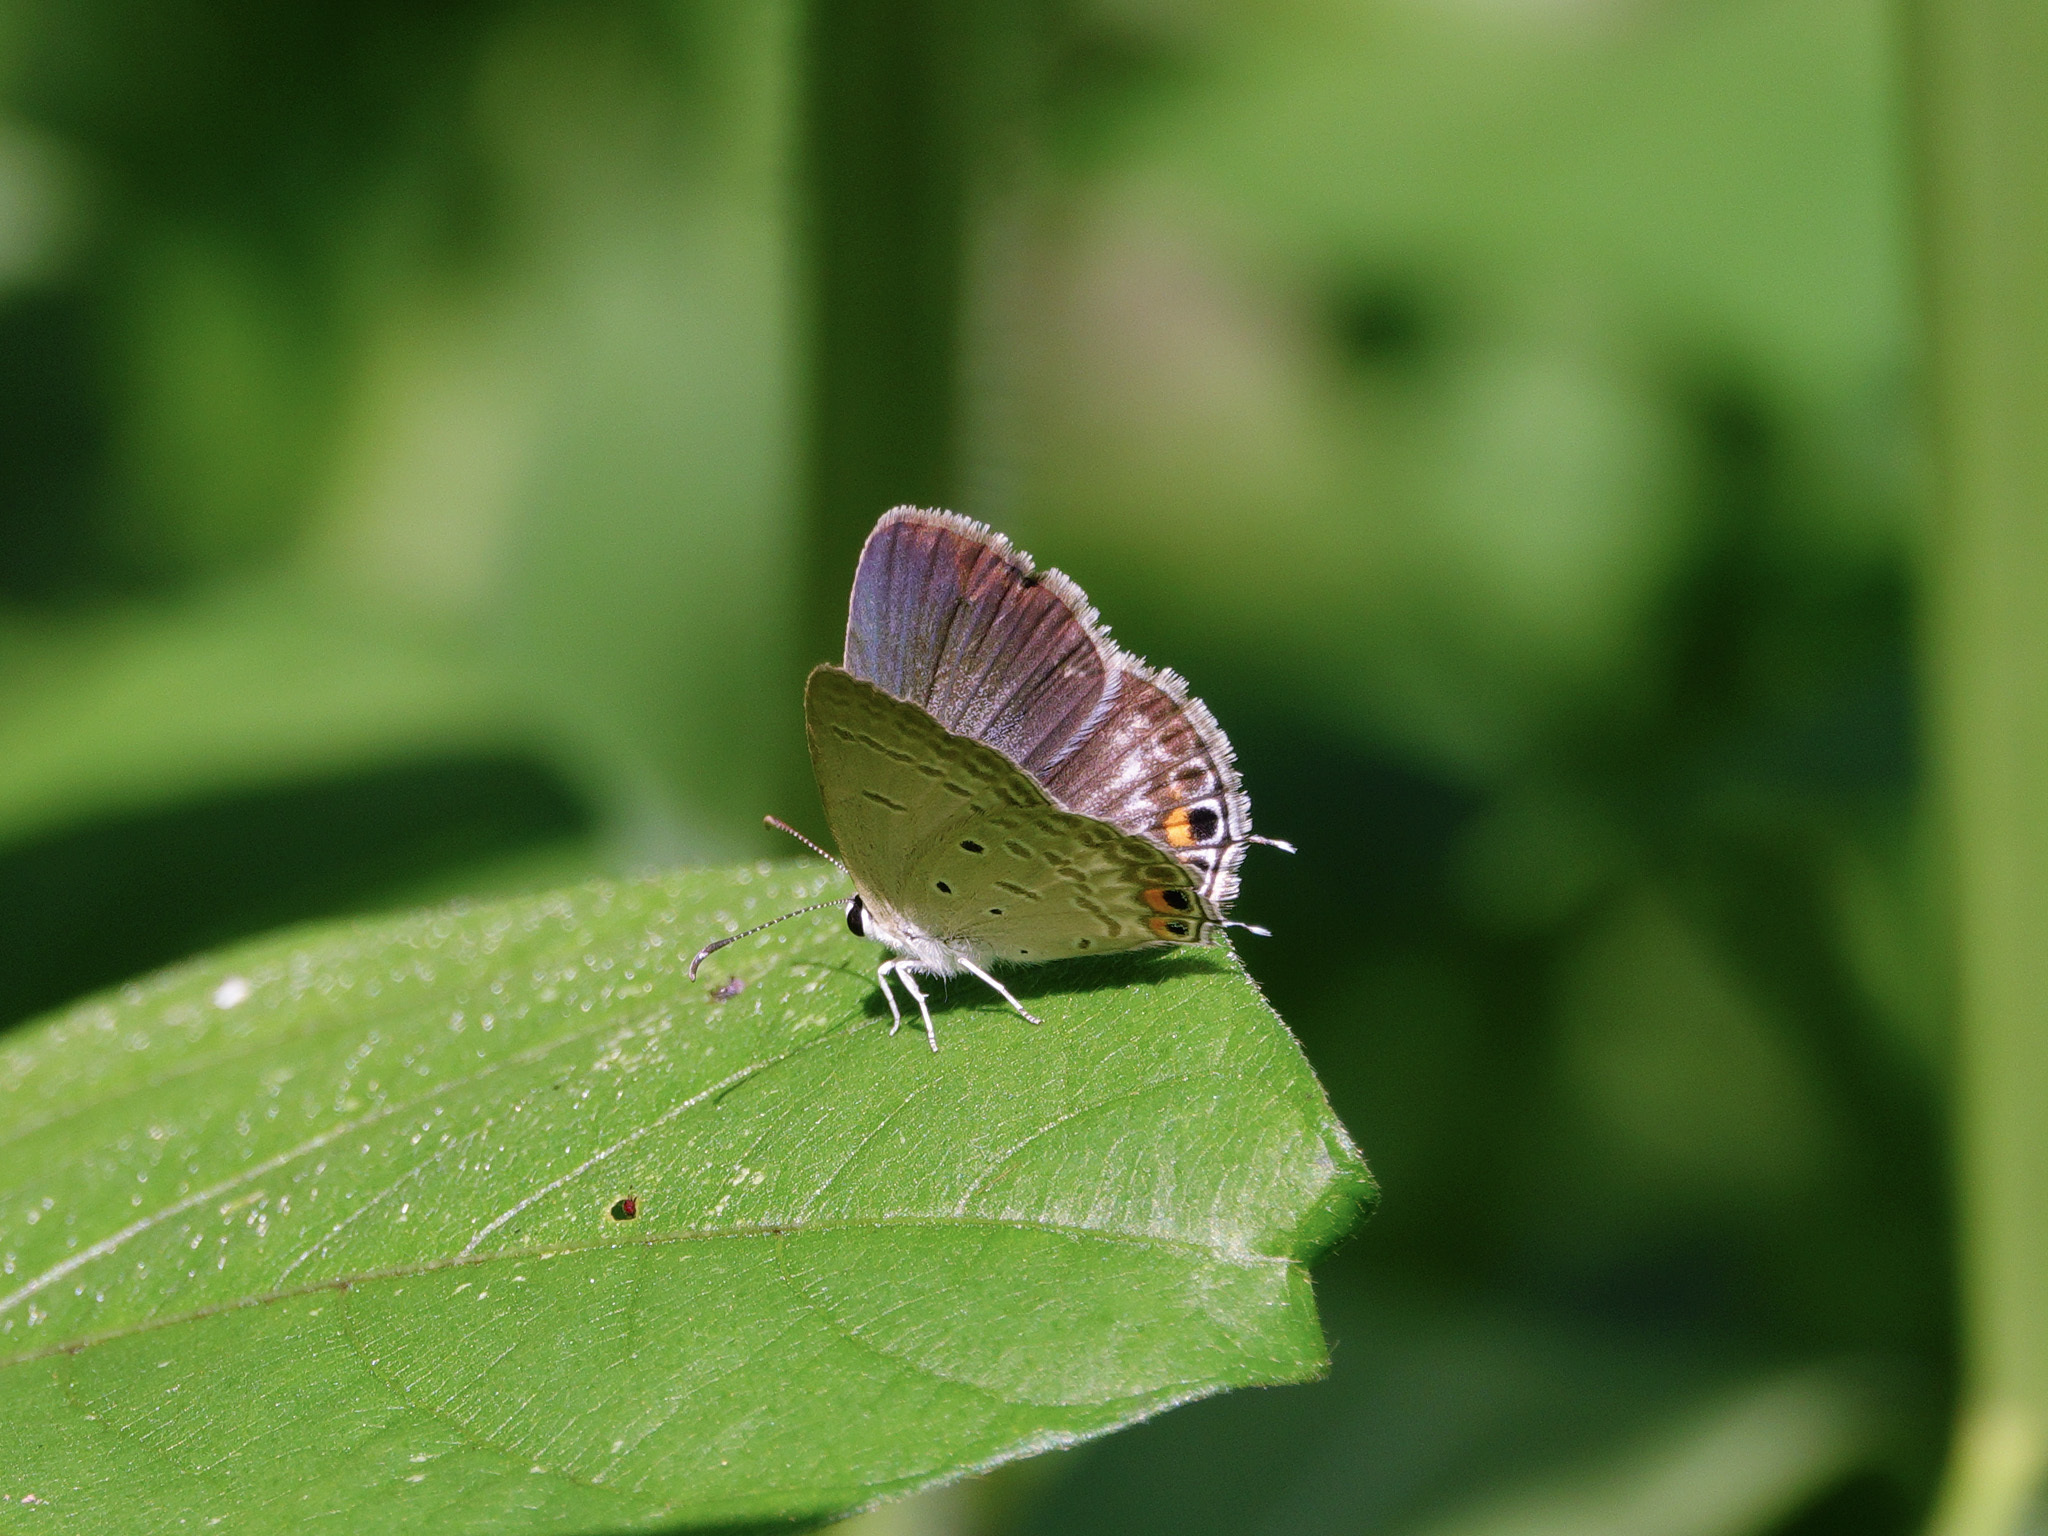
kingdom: Animalia
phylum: Arthropoda
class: Insecta
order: Lepidoptera
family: Lycaenidae
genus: Euchrysops
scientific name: Euchrysops cnejus
